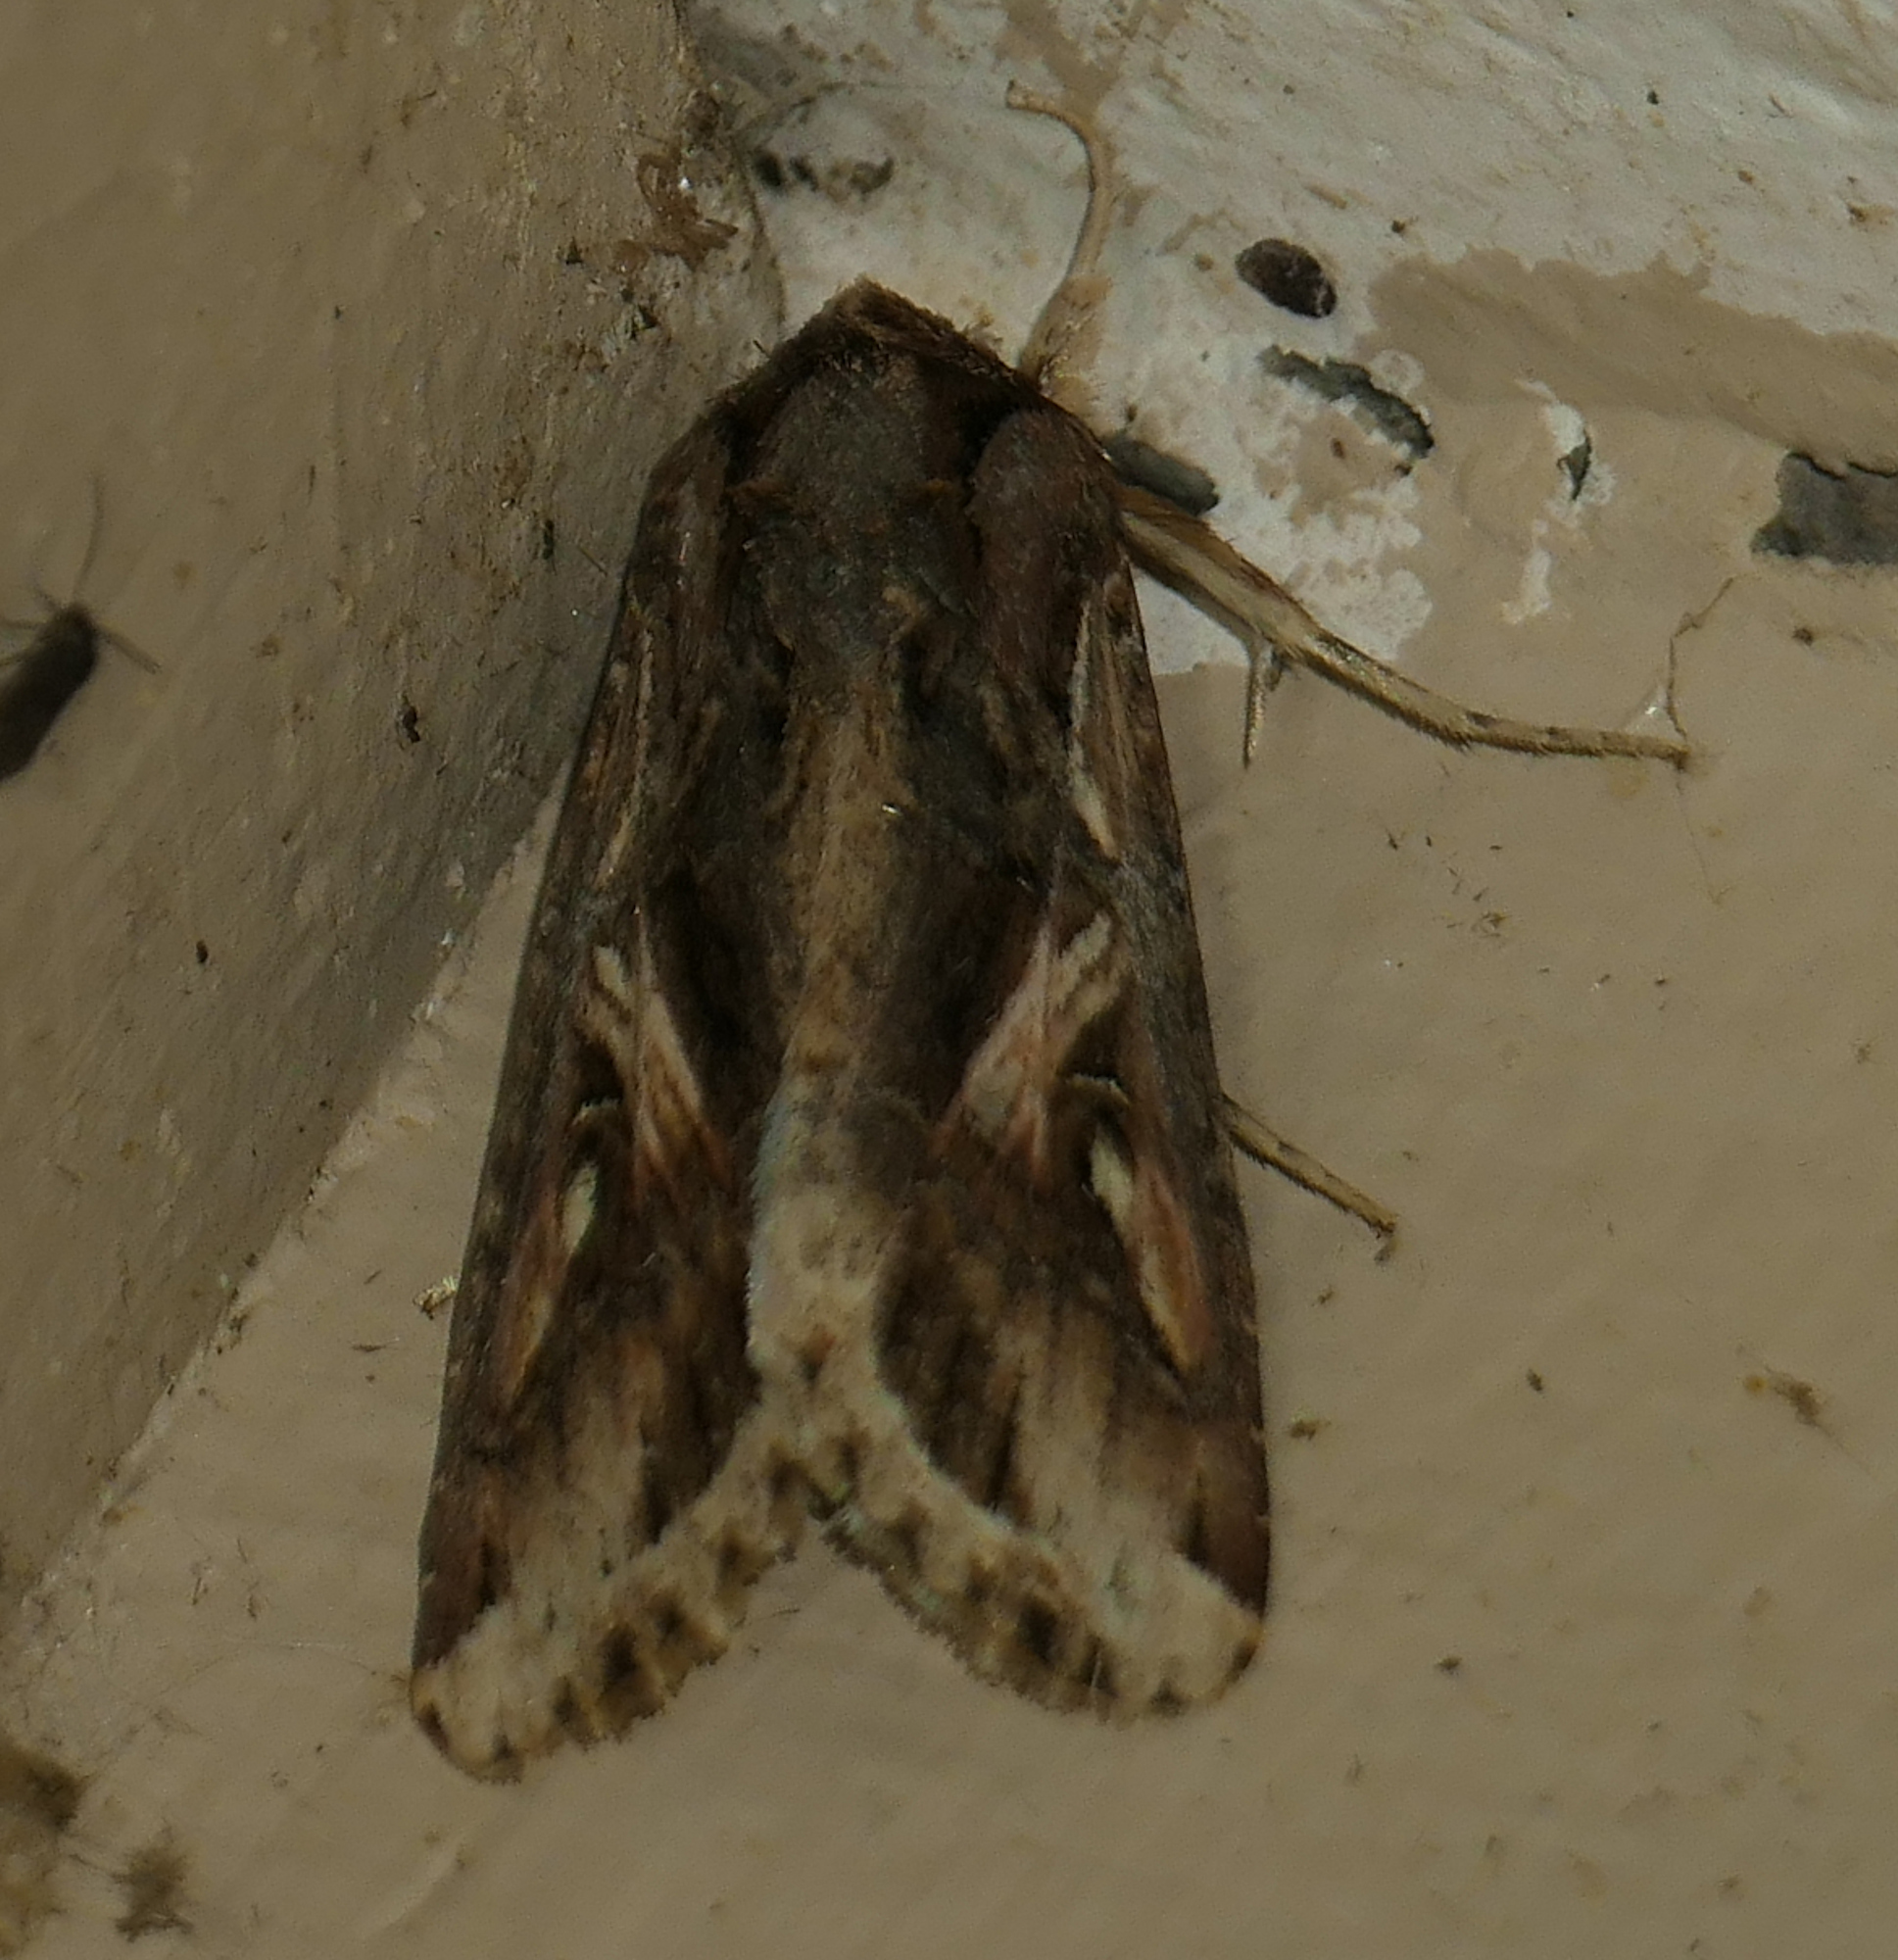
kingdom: Animalia
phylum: Arthropoda
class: Insecta
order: Lepidoptera
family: Noctuidae
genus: Spodoptera
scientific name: Spodoptera dolichos
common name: Sweetpotato armyworm
